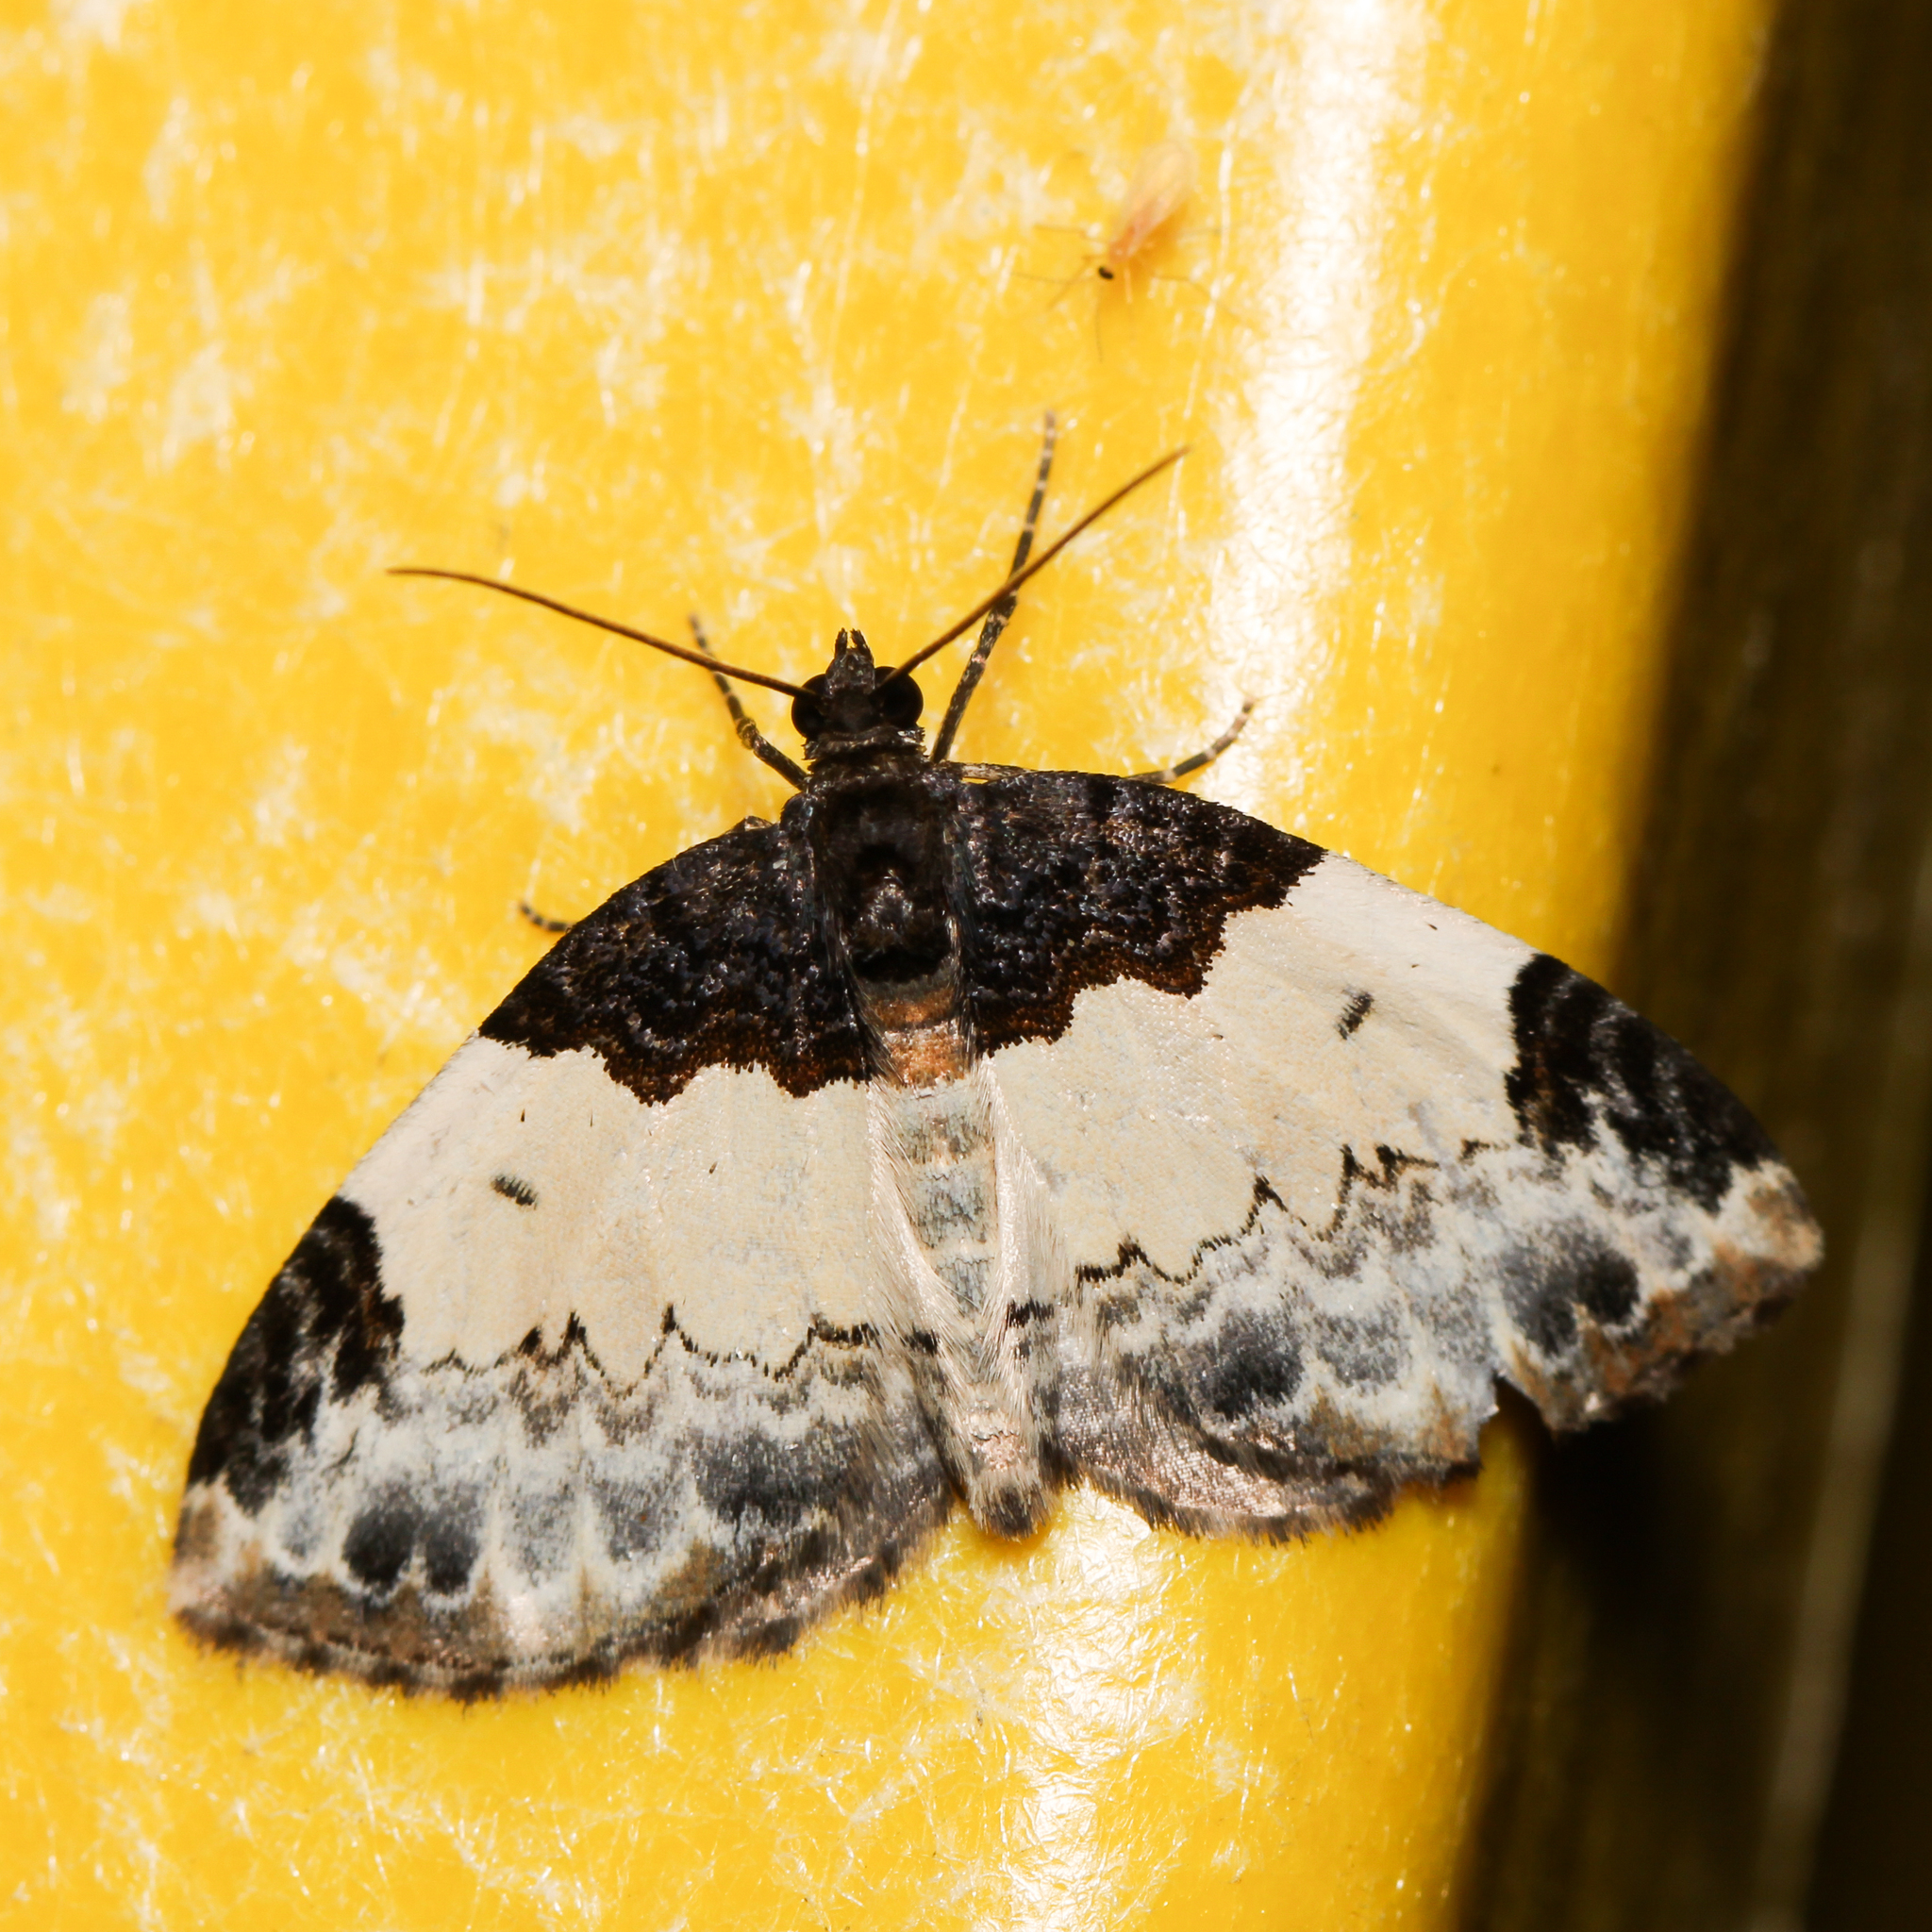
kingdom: Animalia
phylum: Arthropoda
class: Insecta
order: Lepidoptera
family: Geometridae
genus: Mesoleuca
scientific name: Mesoleuca ruficillata
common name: White-ribboned carpet moth
